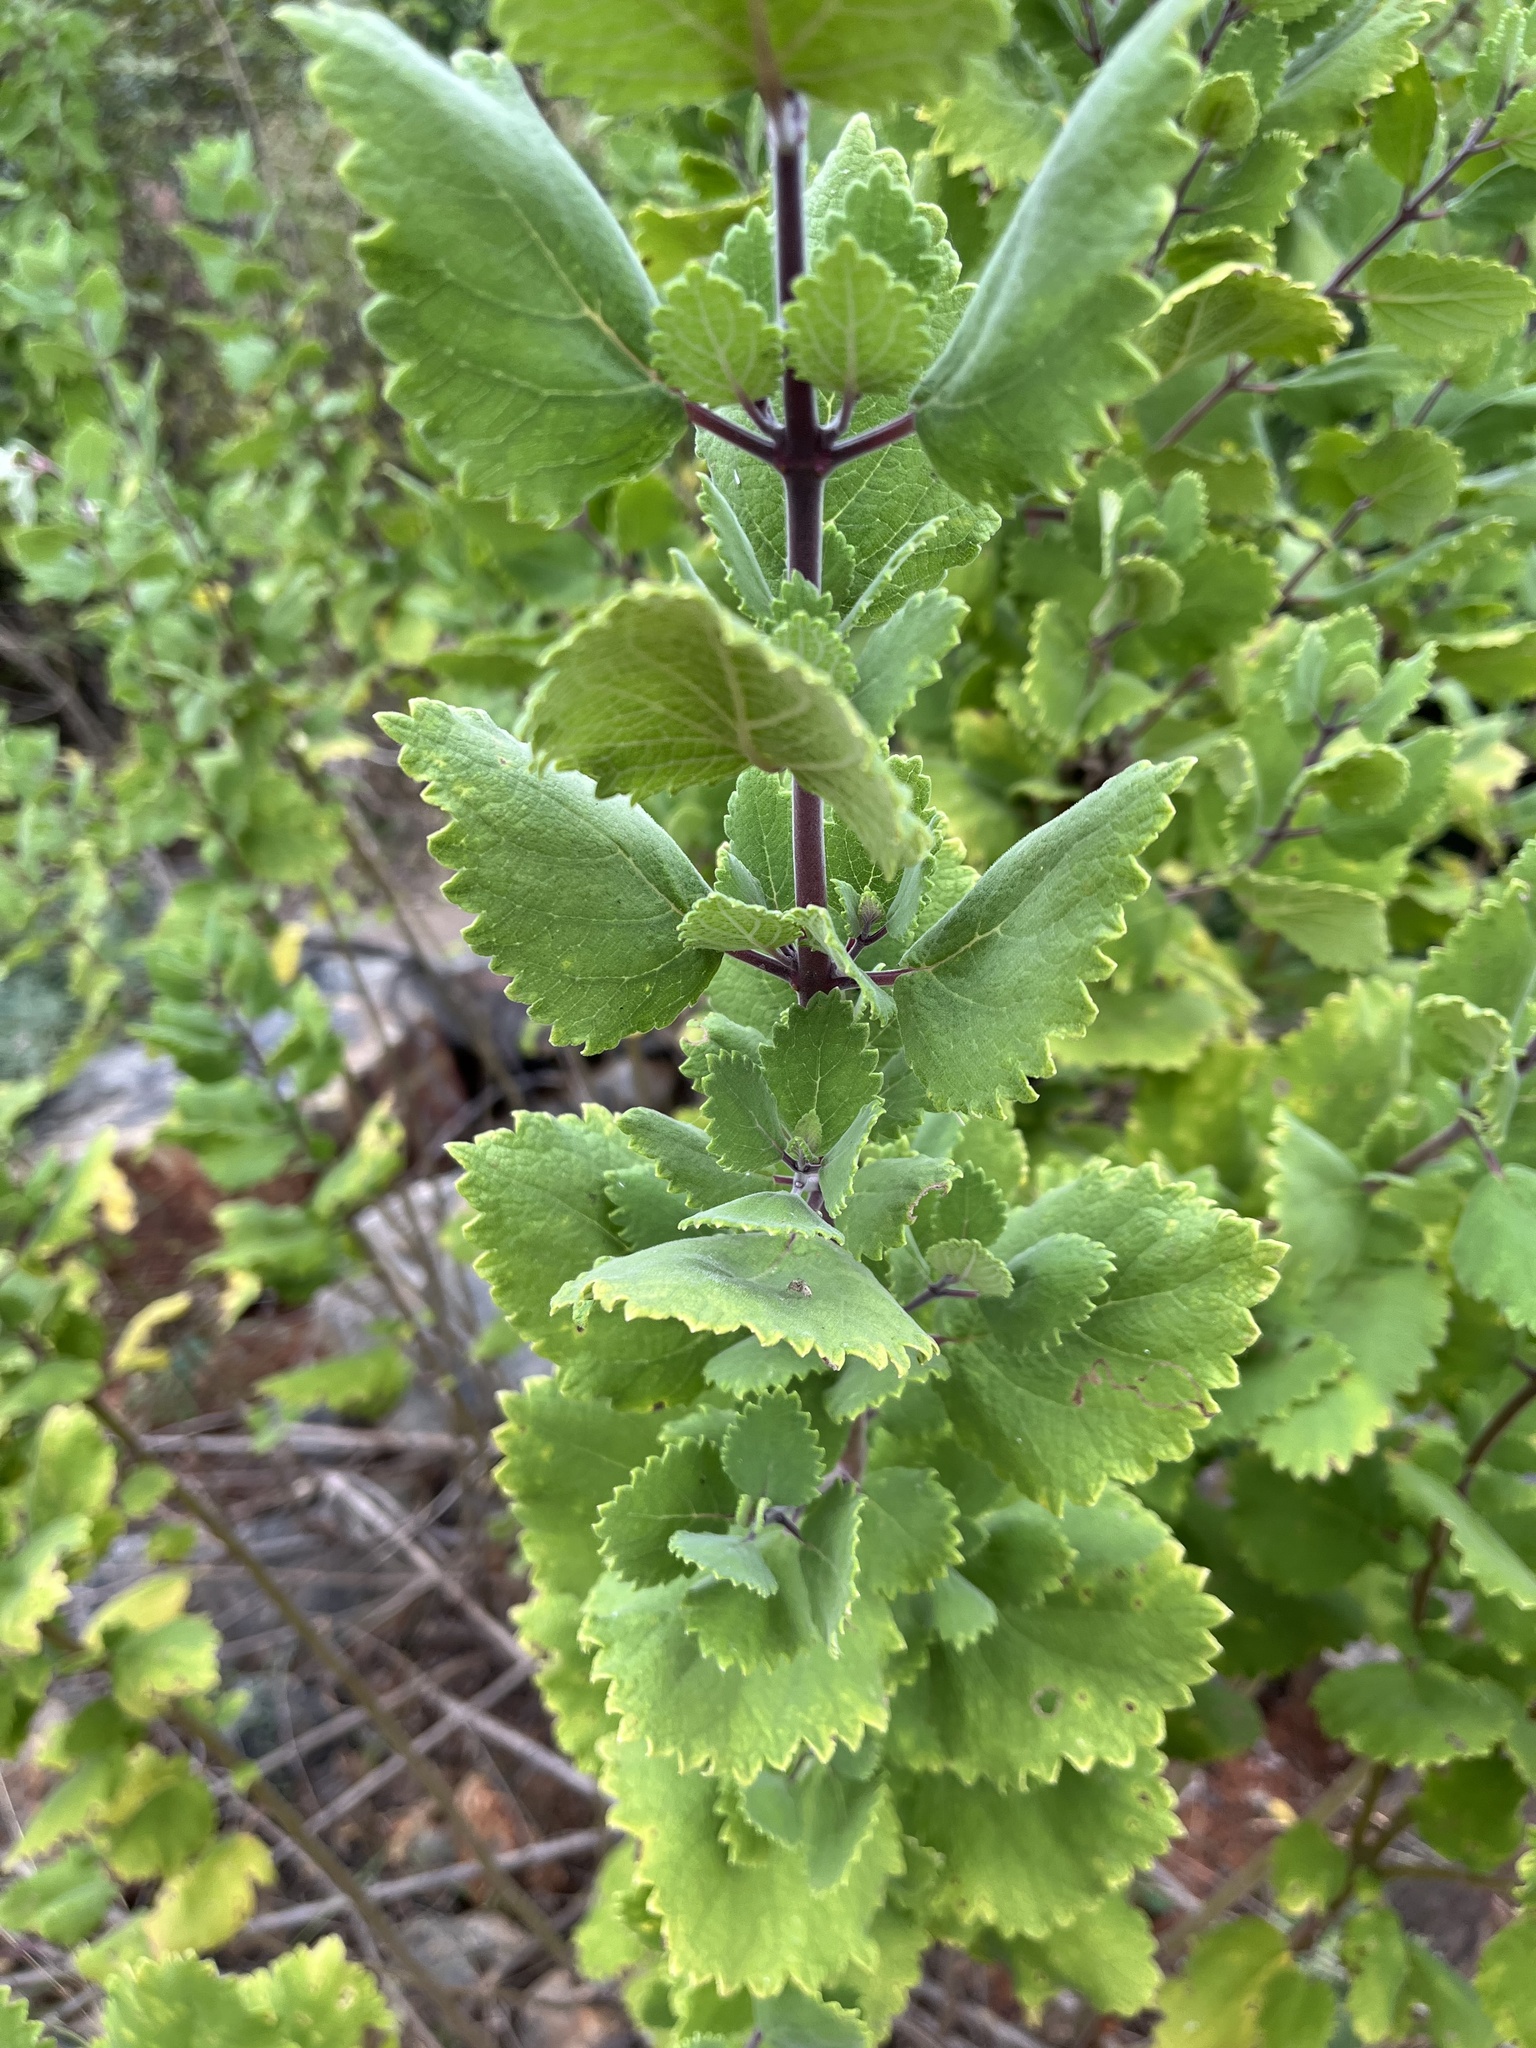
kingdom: Plantae
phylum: Tracheophyta
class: Magnoliopsida
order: Lamiales
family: Lamiaceae
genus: Tetradenia
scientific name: Tetradenia riparia
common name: Gingerbush
